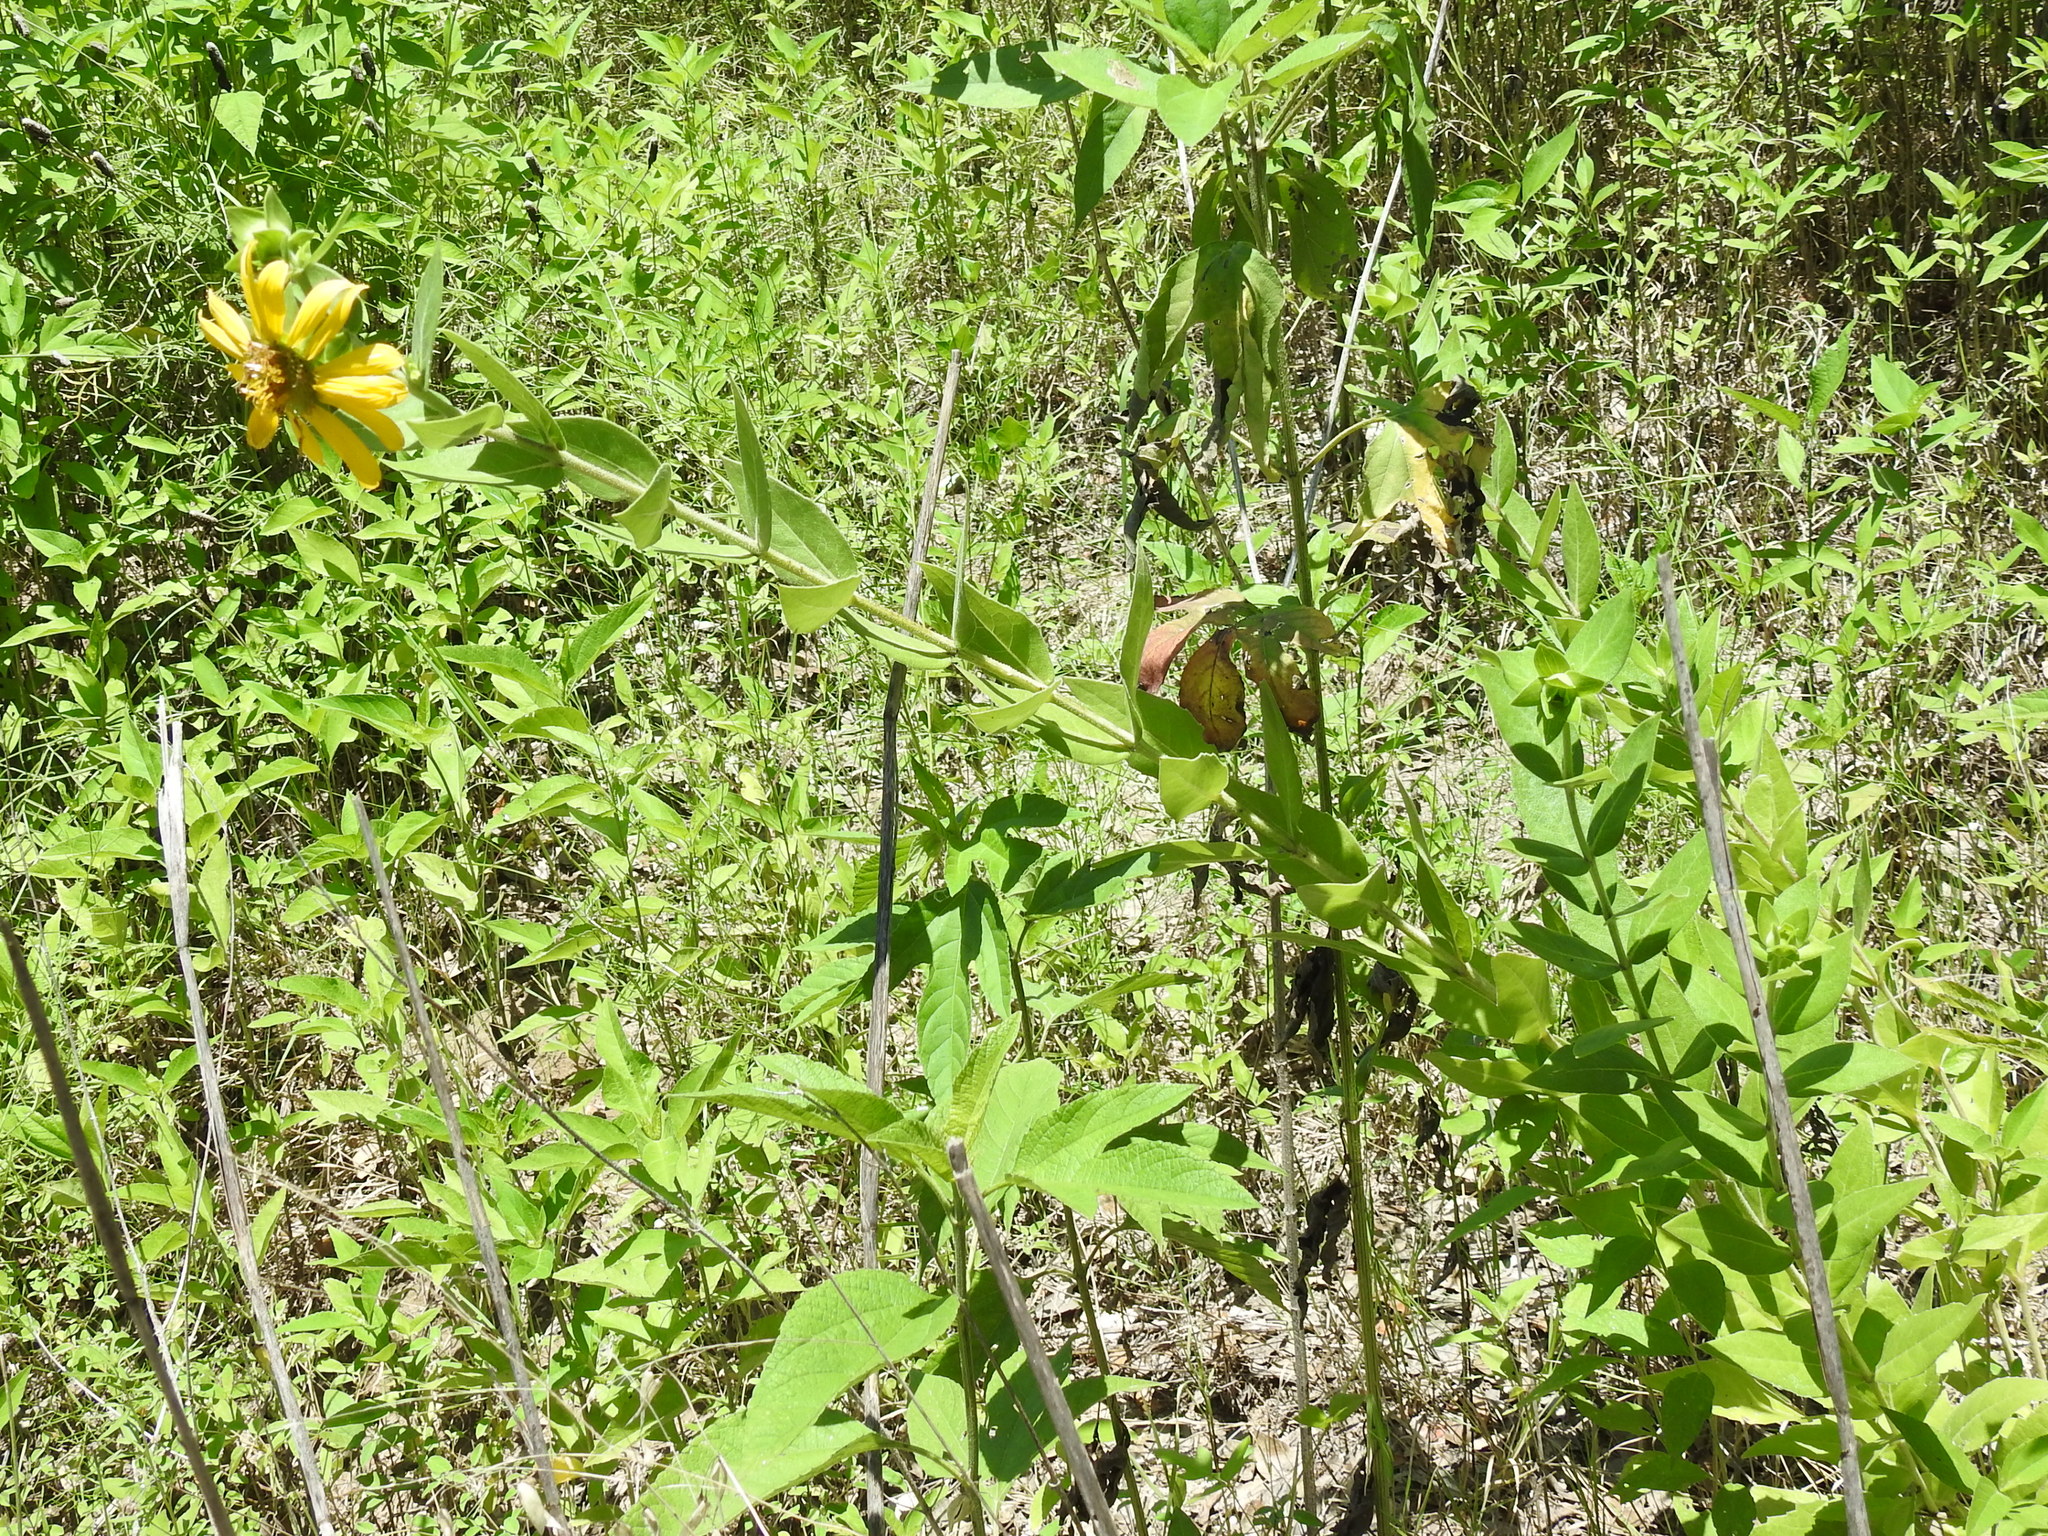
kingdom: Plantae
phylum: Tracheophyta
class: Magnoliopsida
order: Asterales
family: Asteraceae
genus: Silphium
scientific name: Silphium radula
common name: Roughleaf rosinweed
